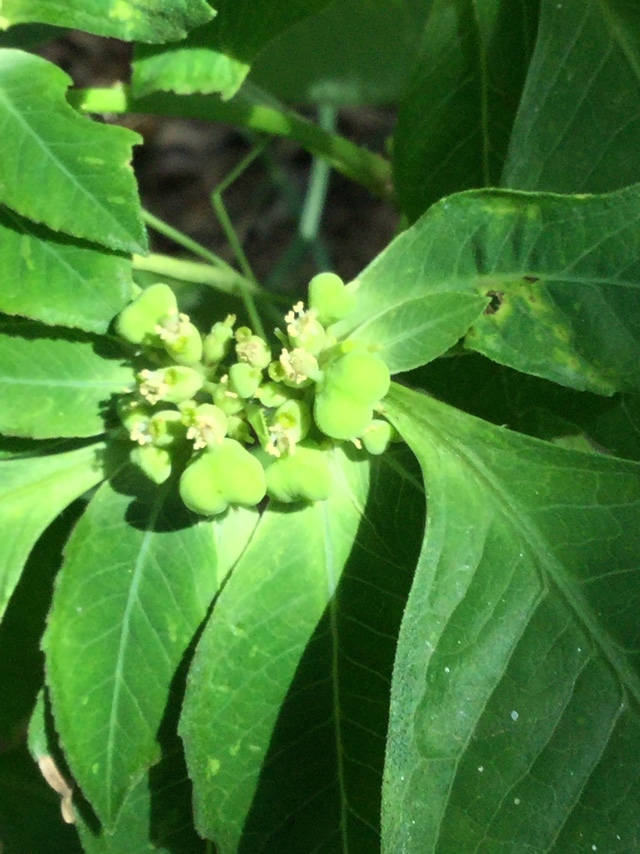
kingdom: Plantae
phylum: Tracheophyta
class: Magnoliopsida
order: Malpighiales
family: Euphorbiaceae
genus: Euphorbia
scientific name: Euphorbia heterophylla
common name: Mexican fireplant
